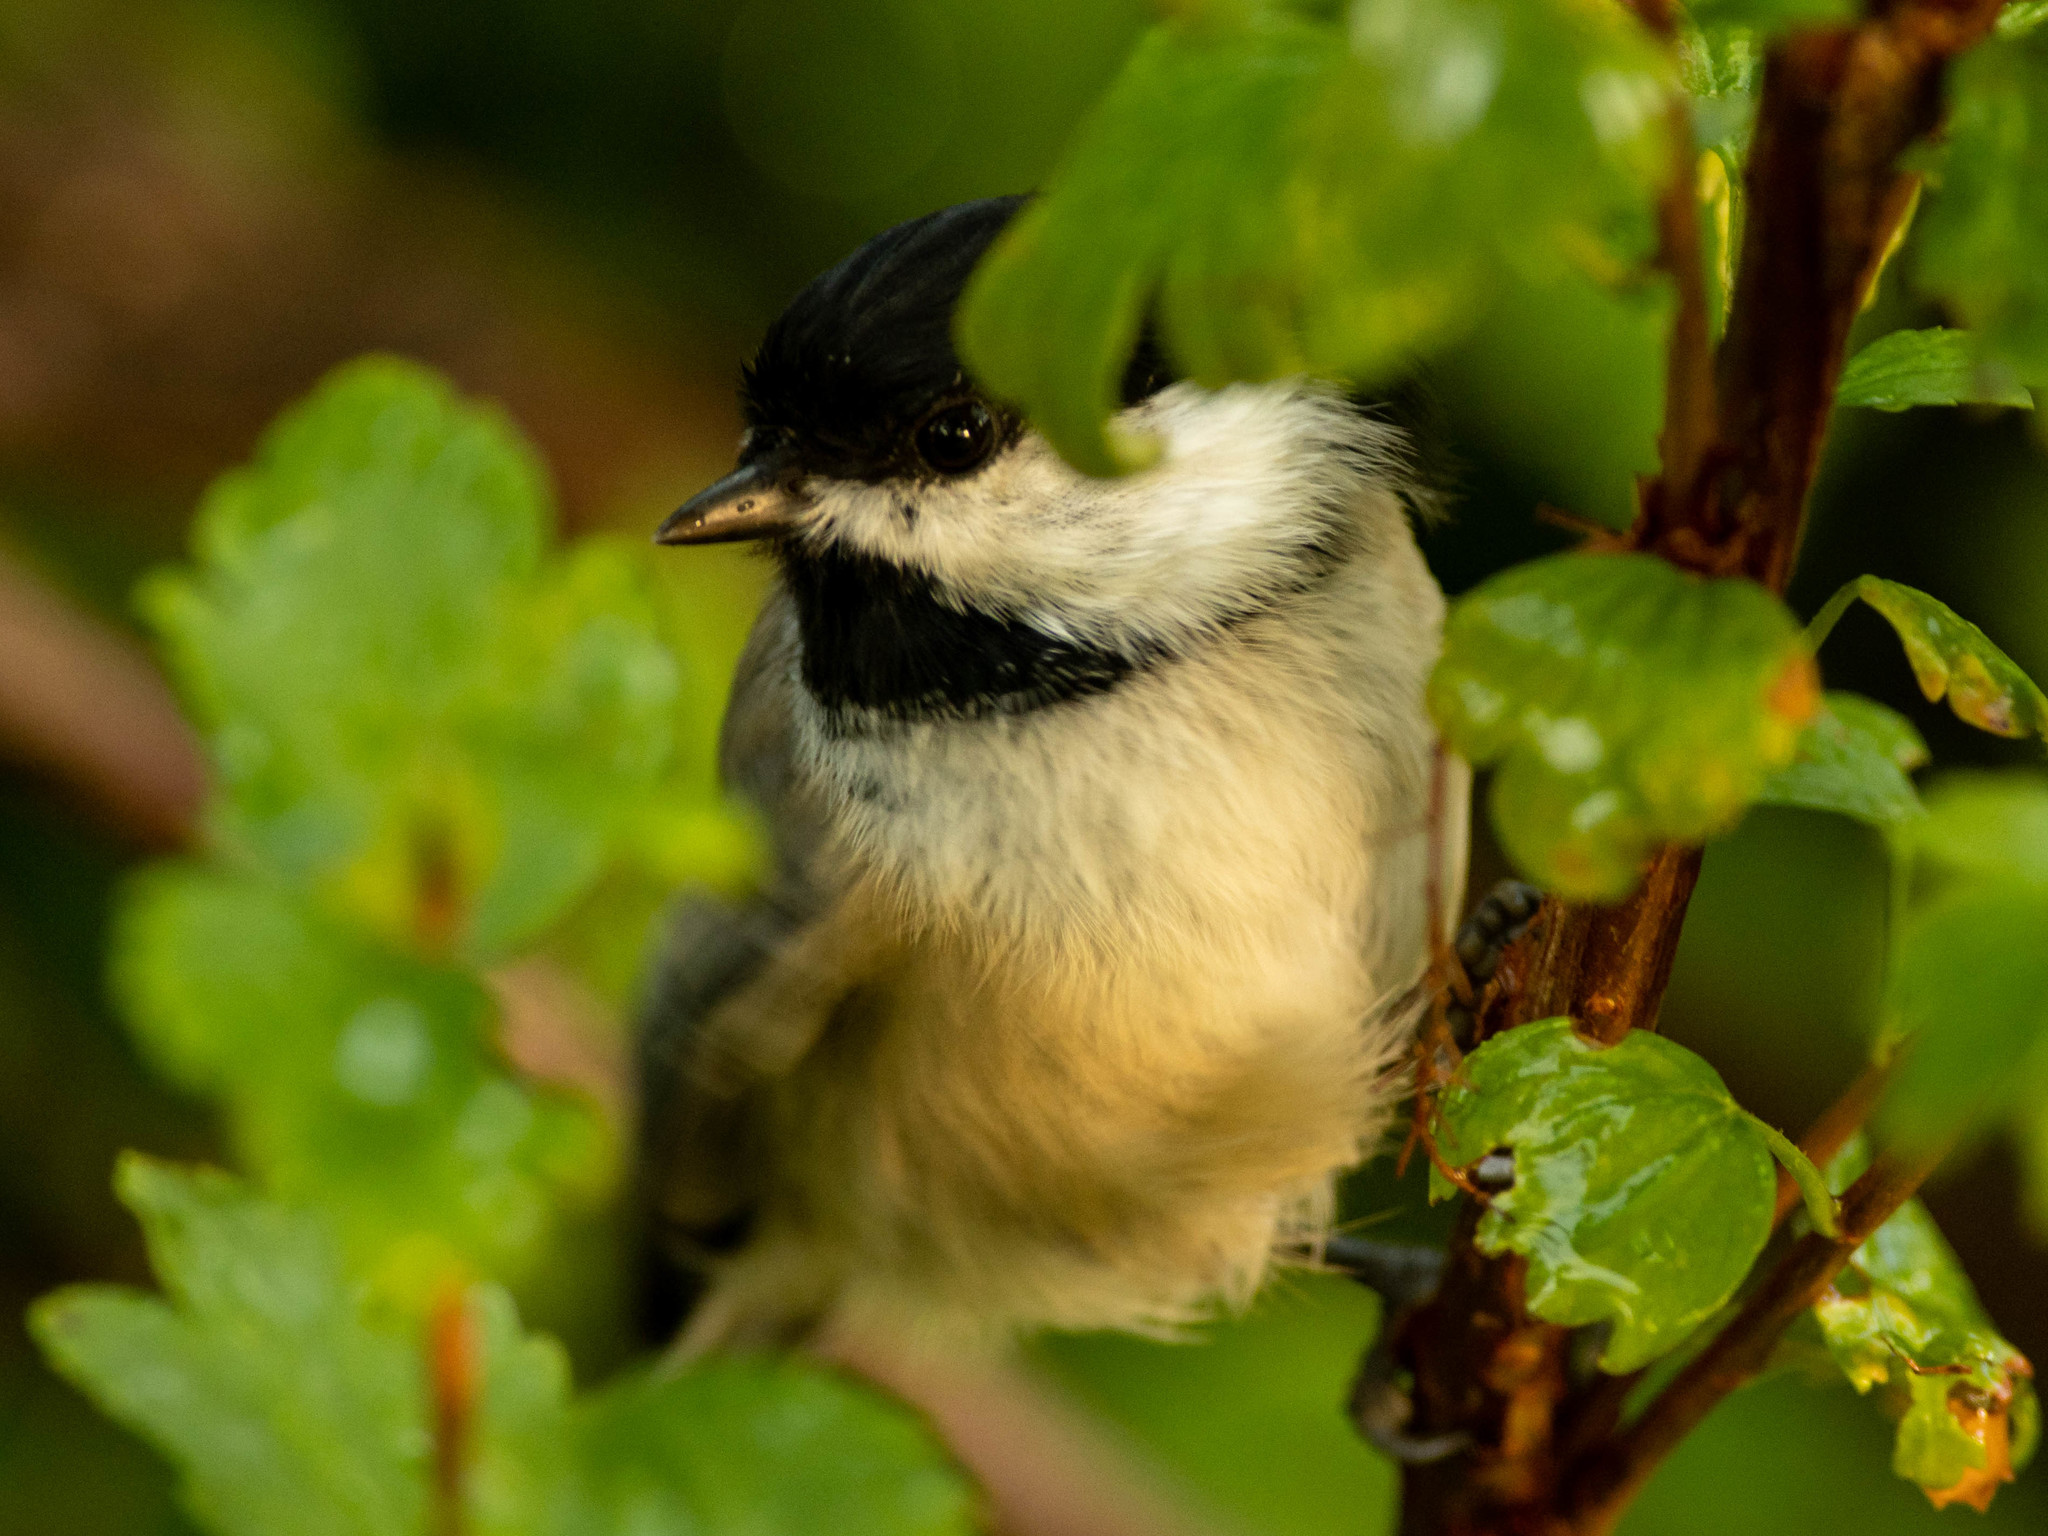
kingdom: Animalia
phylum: Chordata
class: Aves
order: Passeriformes
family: Paridae
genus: Poecile
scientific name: Poecile atricapillus
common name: Black-capped chickadee
